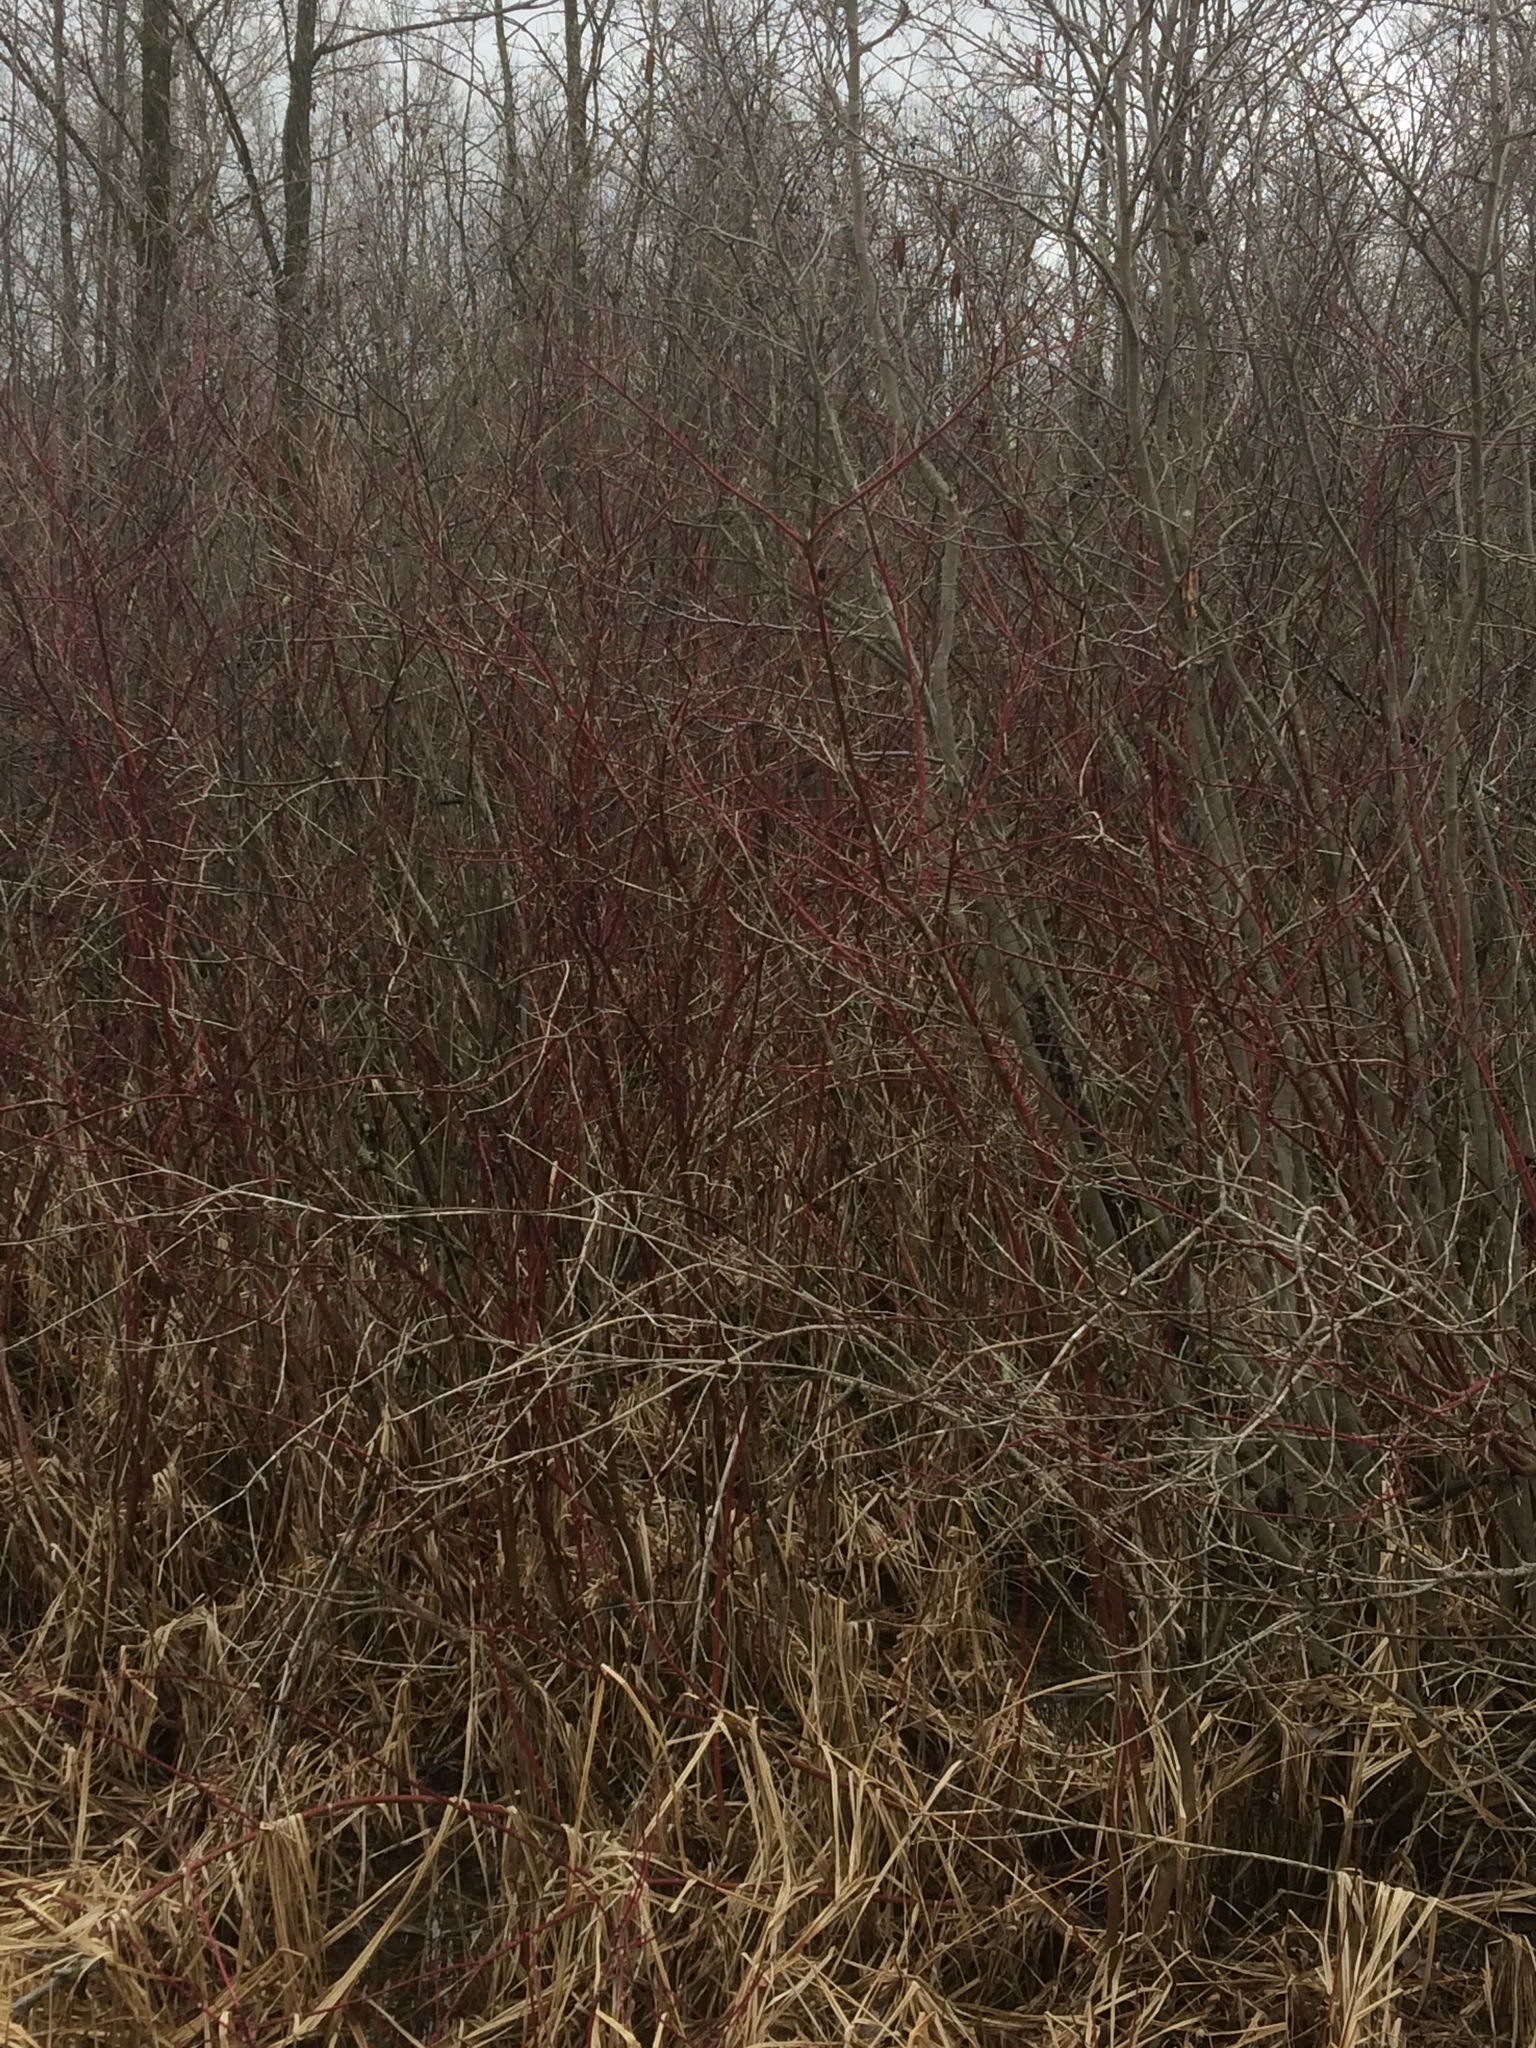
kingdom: Plantae
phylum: Tracheophyta
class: Magnoliopsida
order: Cornales
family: Cornaceae
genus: Cornus
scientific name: Cornus sericea
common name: Red-osier dogwood
